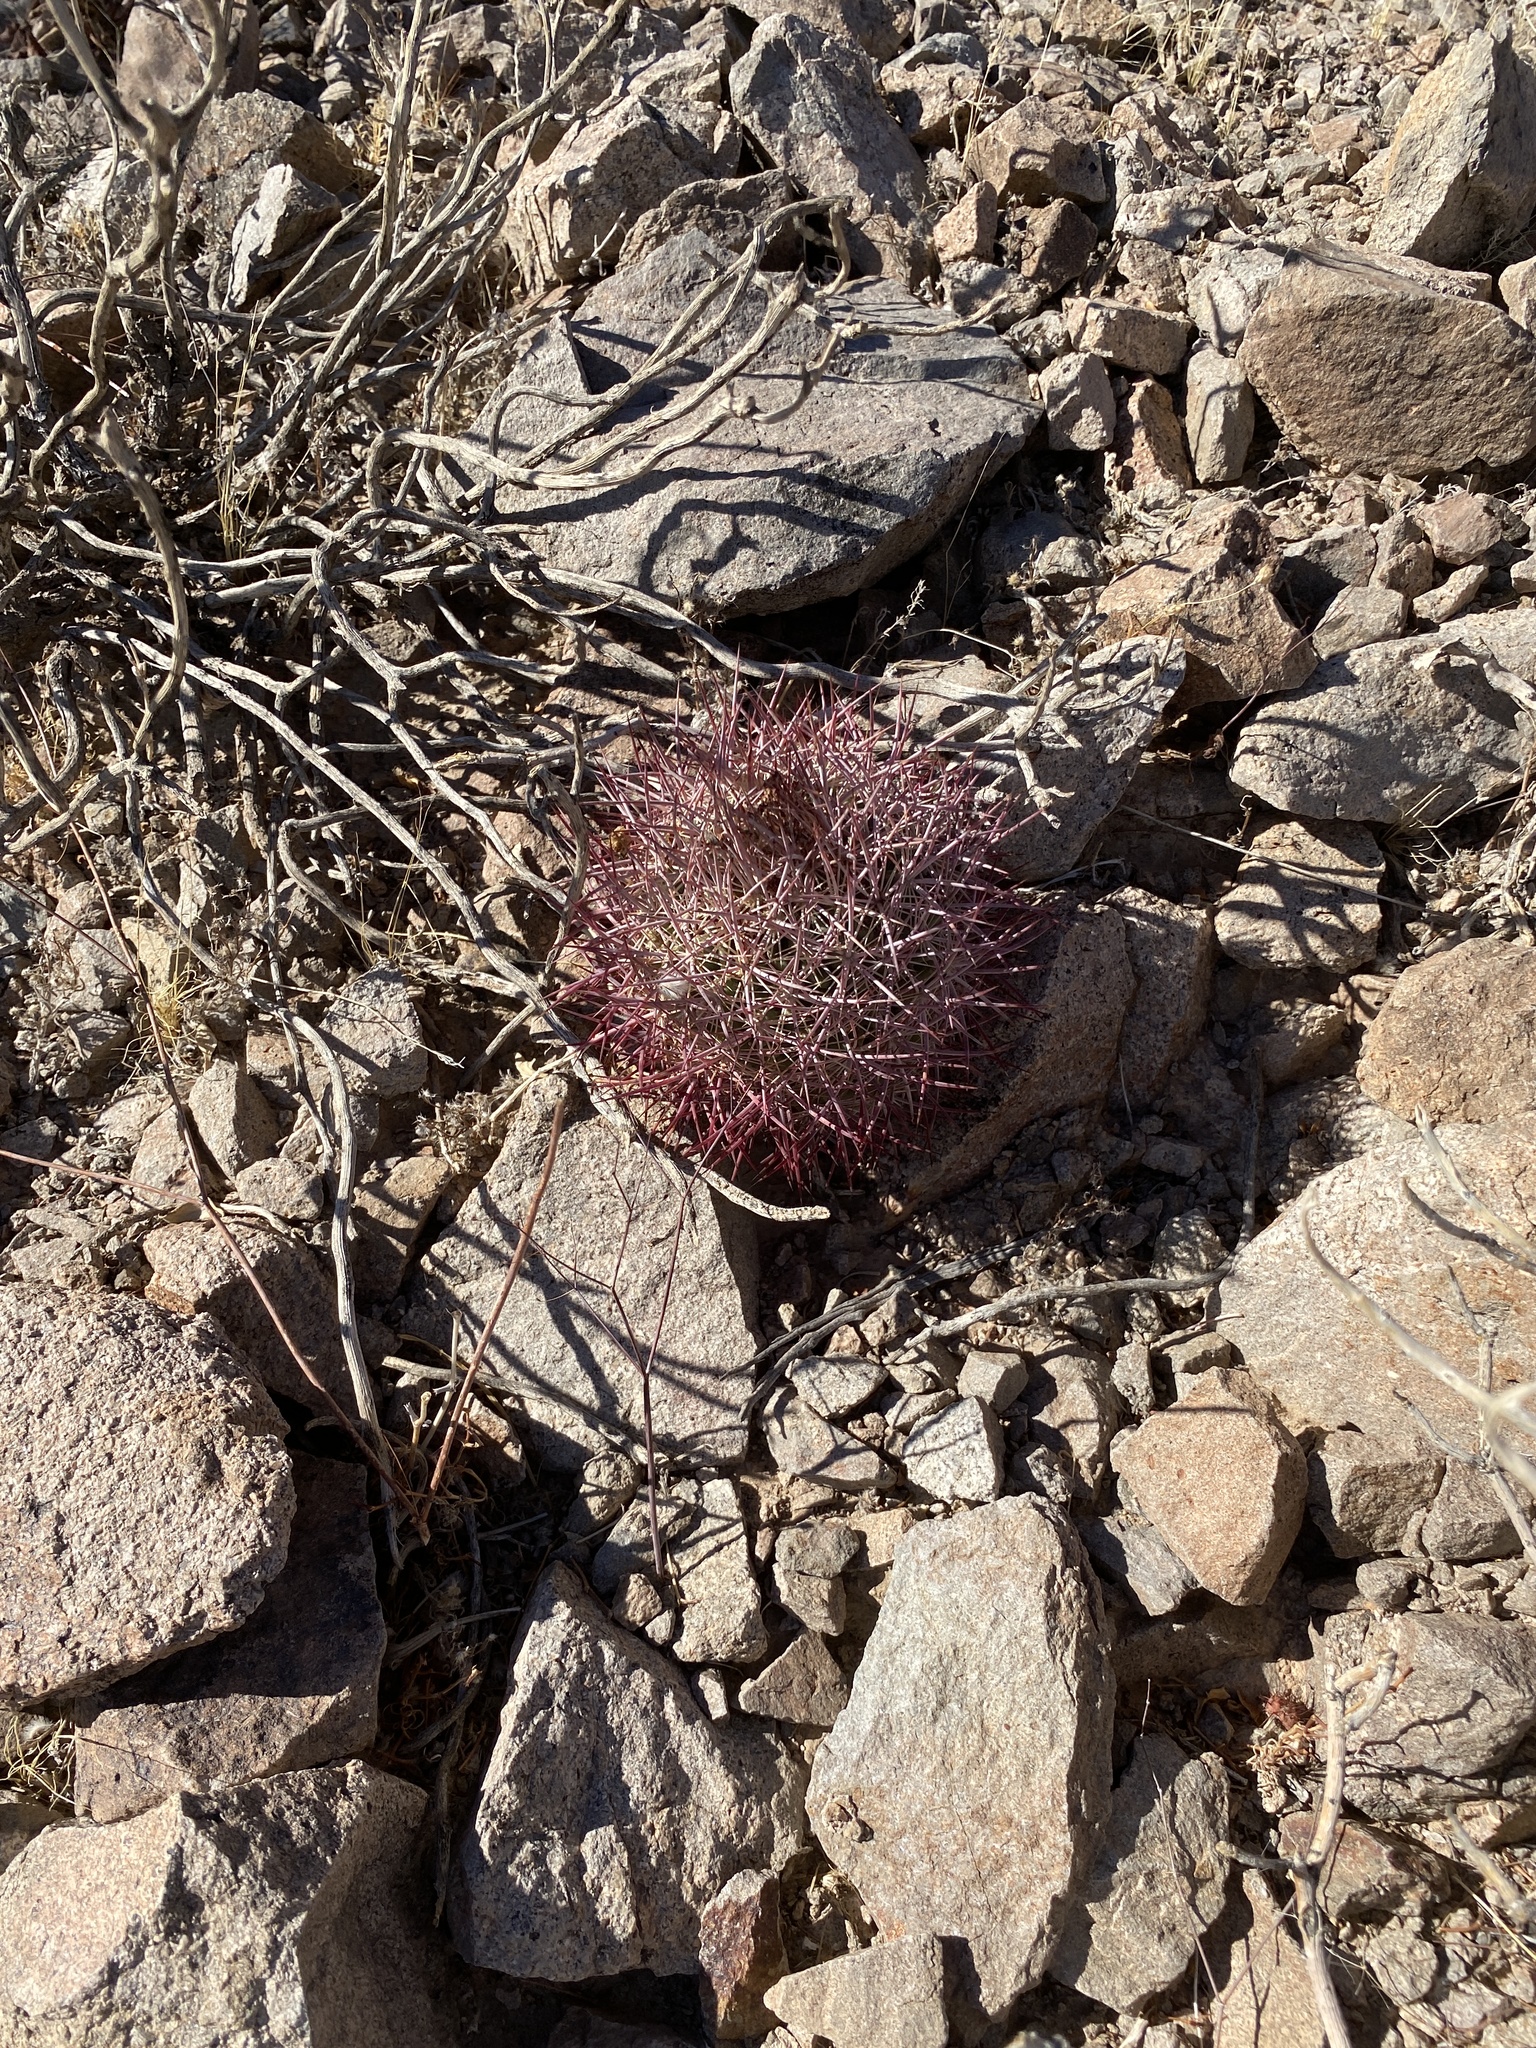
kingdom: Plantae
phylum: Tracheophyta
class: Magnoliopsida
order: Caryophyllales
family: Cactaceae
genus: Sclerocactus
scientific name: Sclerocactus johnsonii
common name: Eight-spine fishhook cactus
